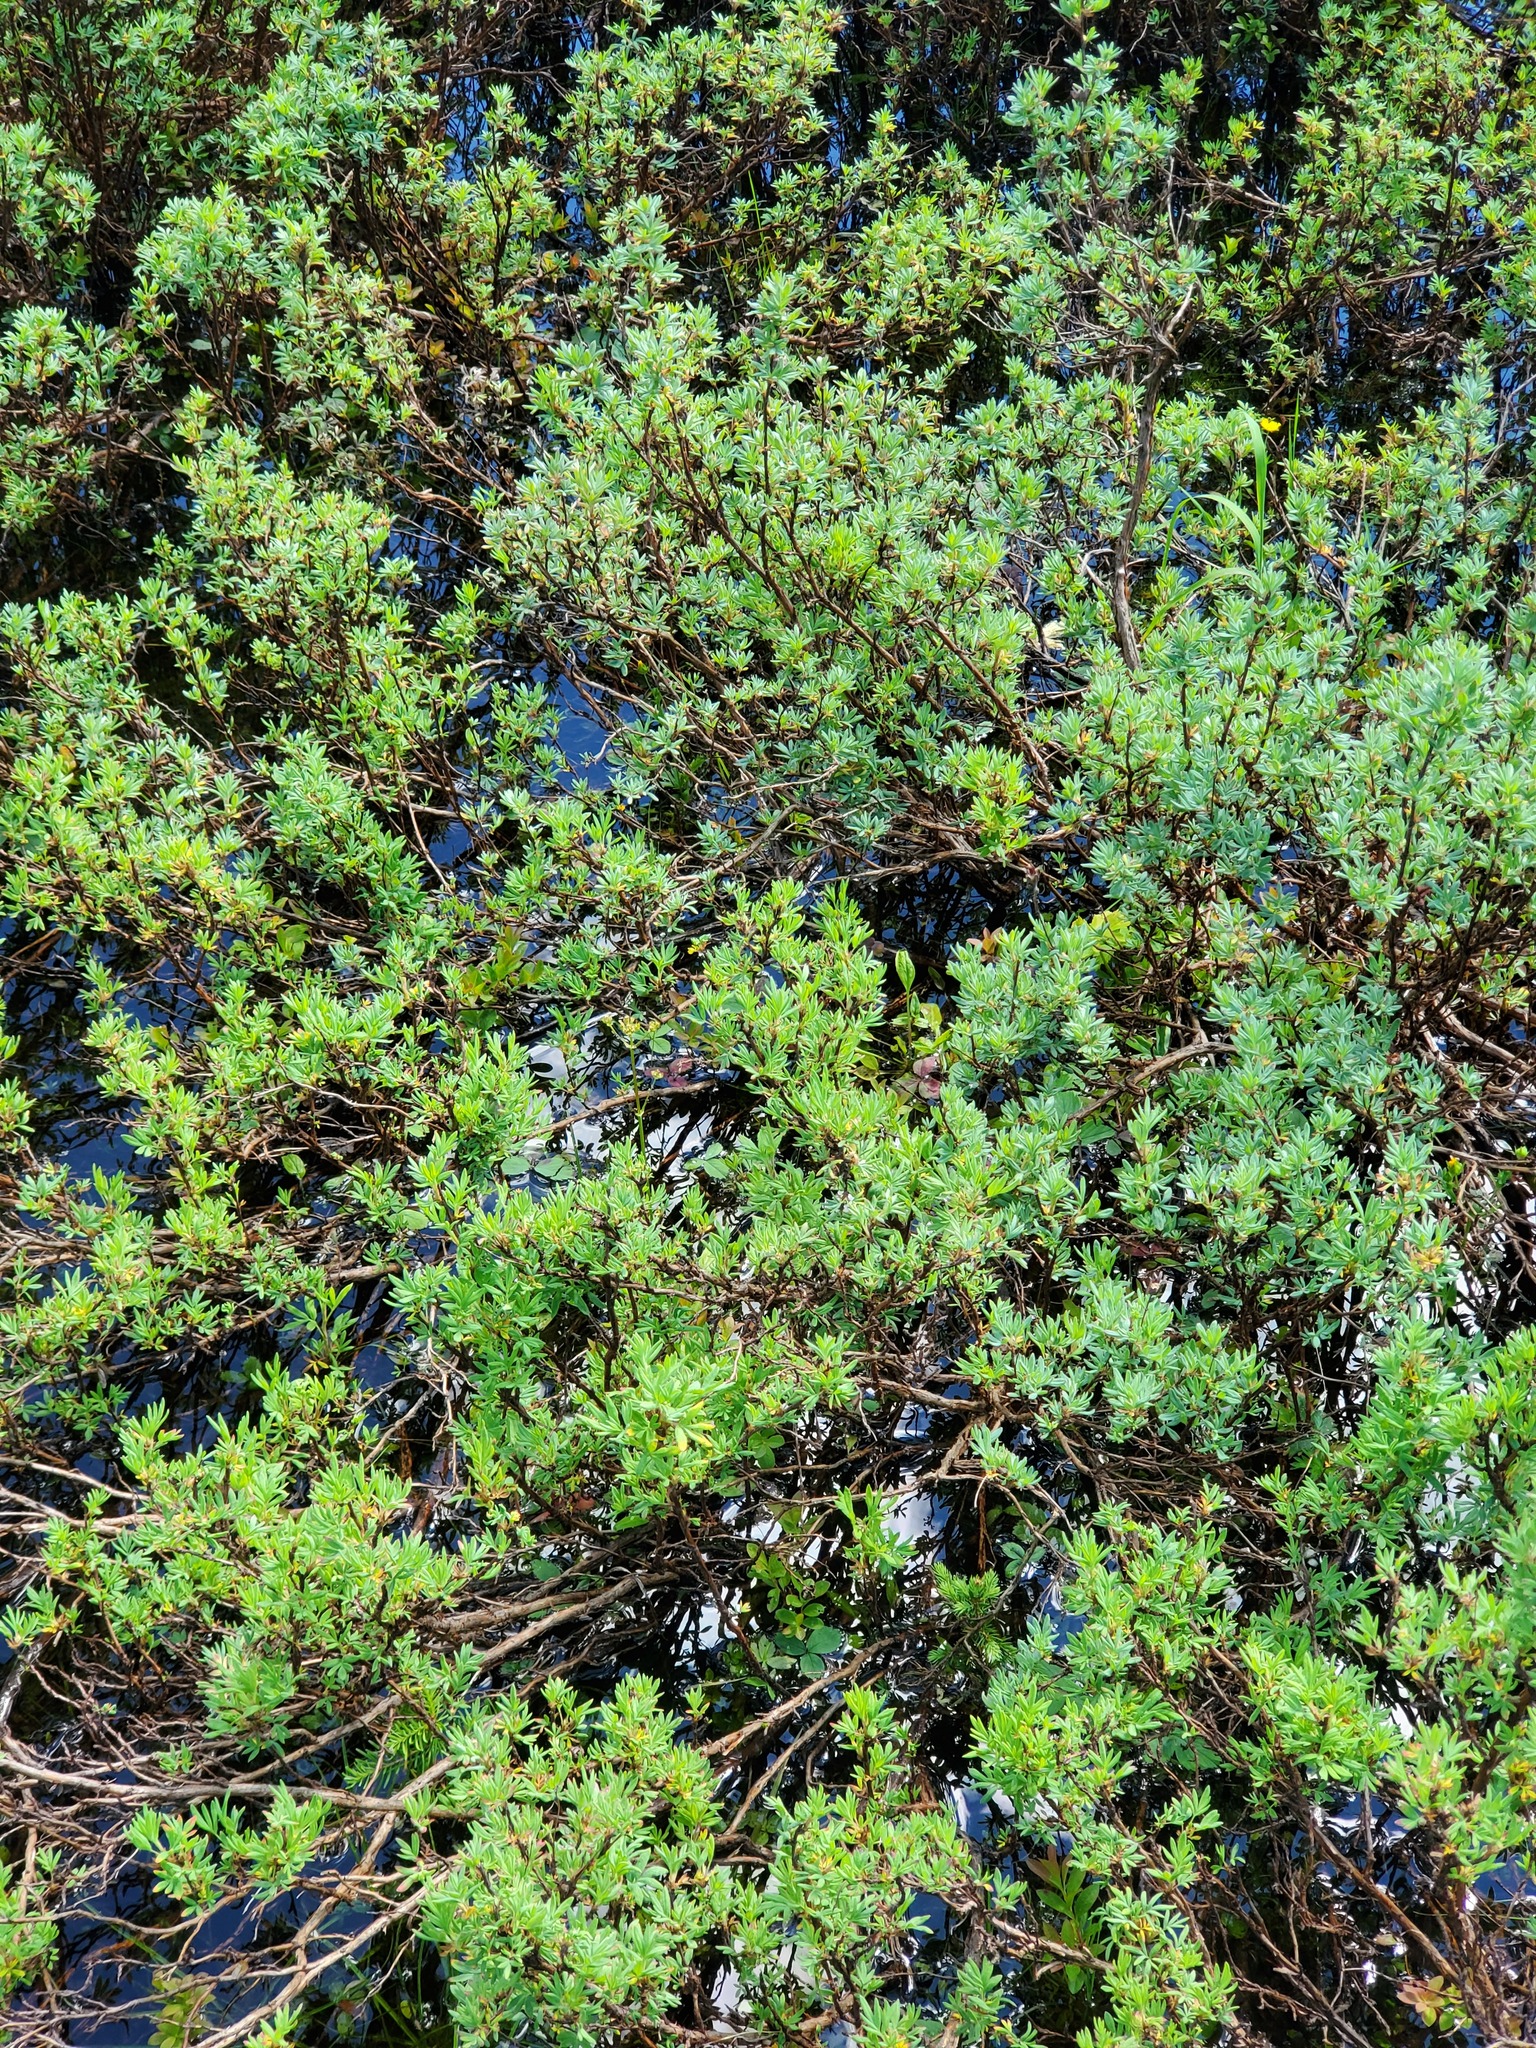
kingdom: Plantae
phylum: Tracheophyta
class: Magnoliopsida
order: Rosales
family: Rosaceae
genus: Dasiphora
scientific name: Dasiphora fruticosa
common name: Shrubby cinquefoil
